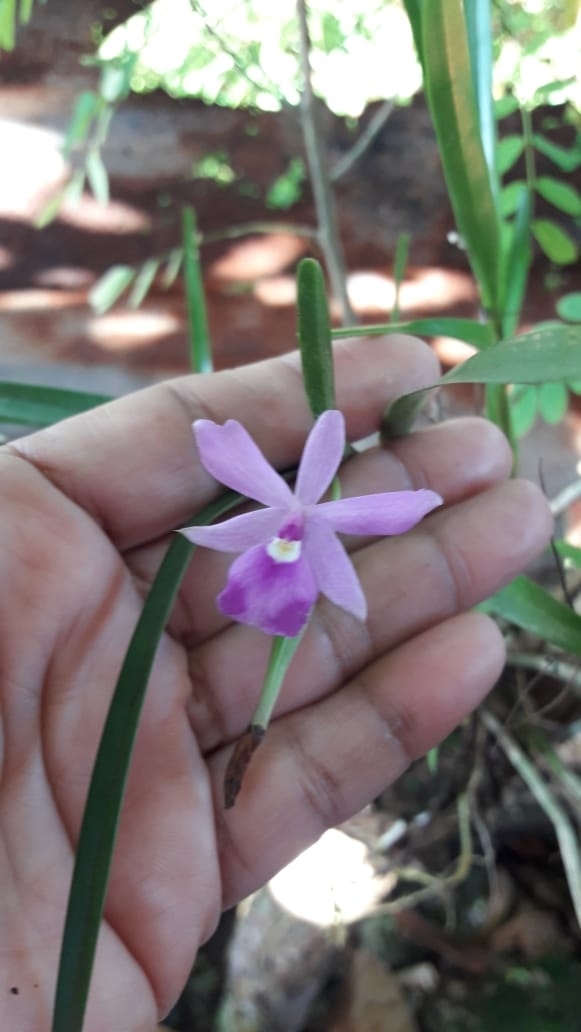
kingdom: Plantae
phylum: Tracheophyta
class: Liliopsida
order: Asparagales
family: Orchidaceae
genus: Dimerandra
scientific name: Dimerandra emarginata
